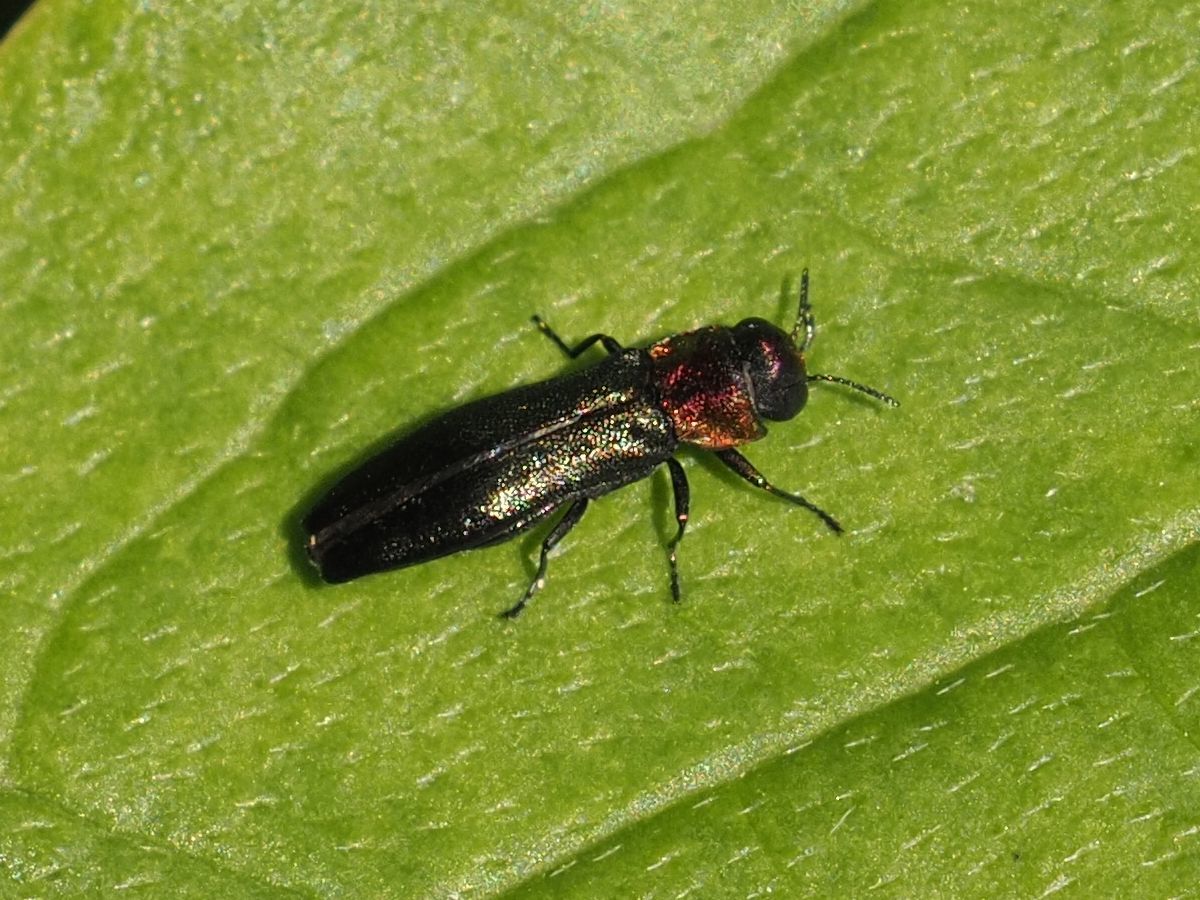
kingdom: Animalia
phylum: Arthropoda
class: Insecta
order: Coleoptera
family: Buprestidae
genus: Agrilus
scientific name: Agrilus pratensis
